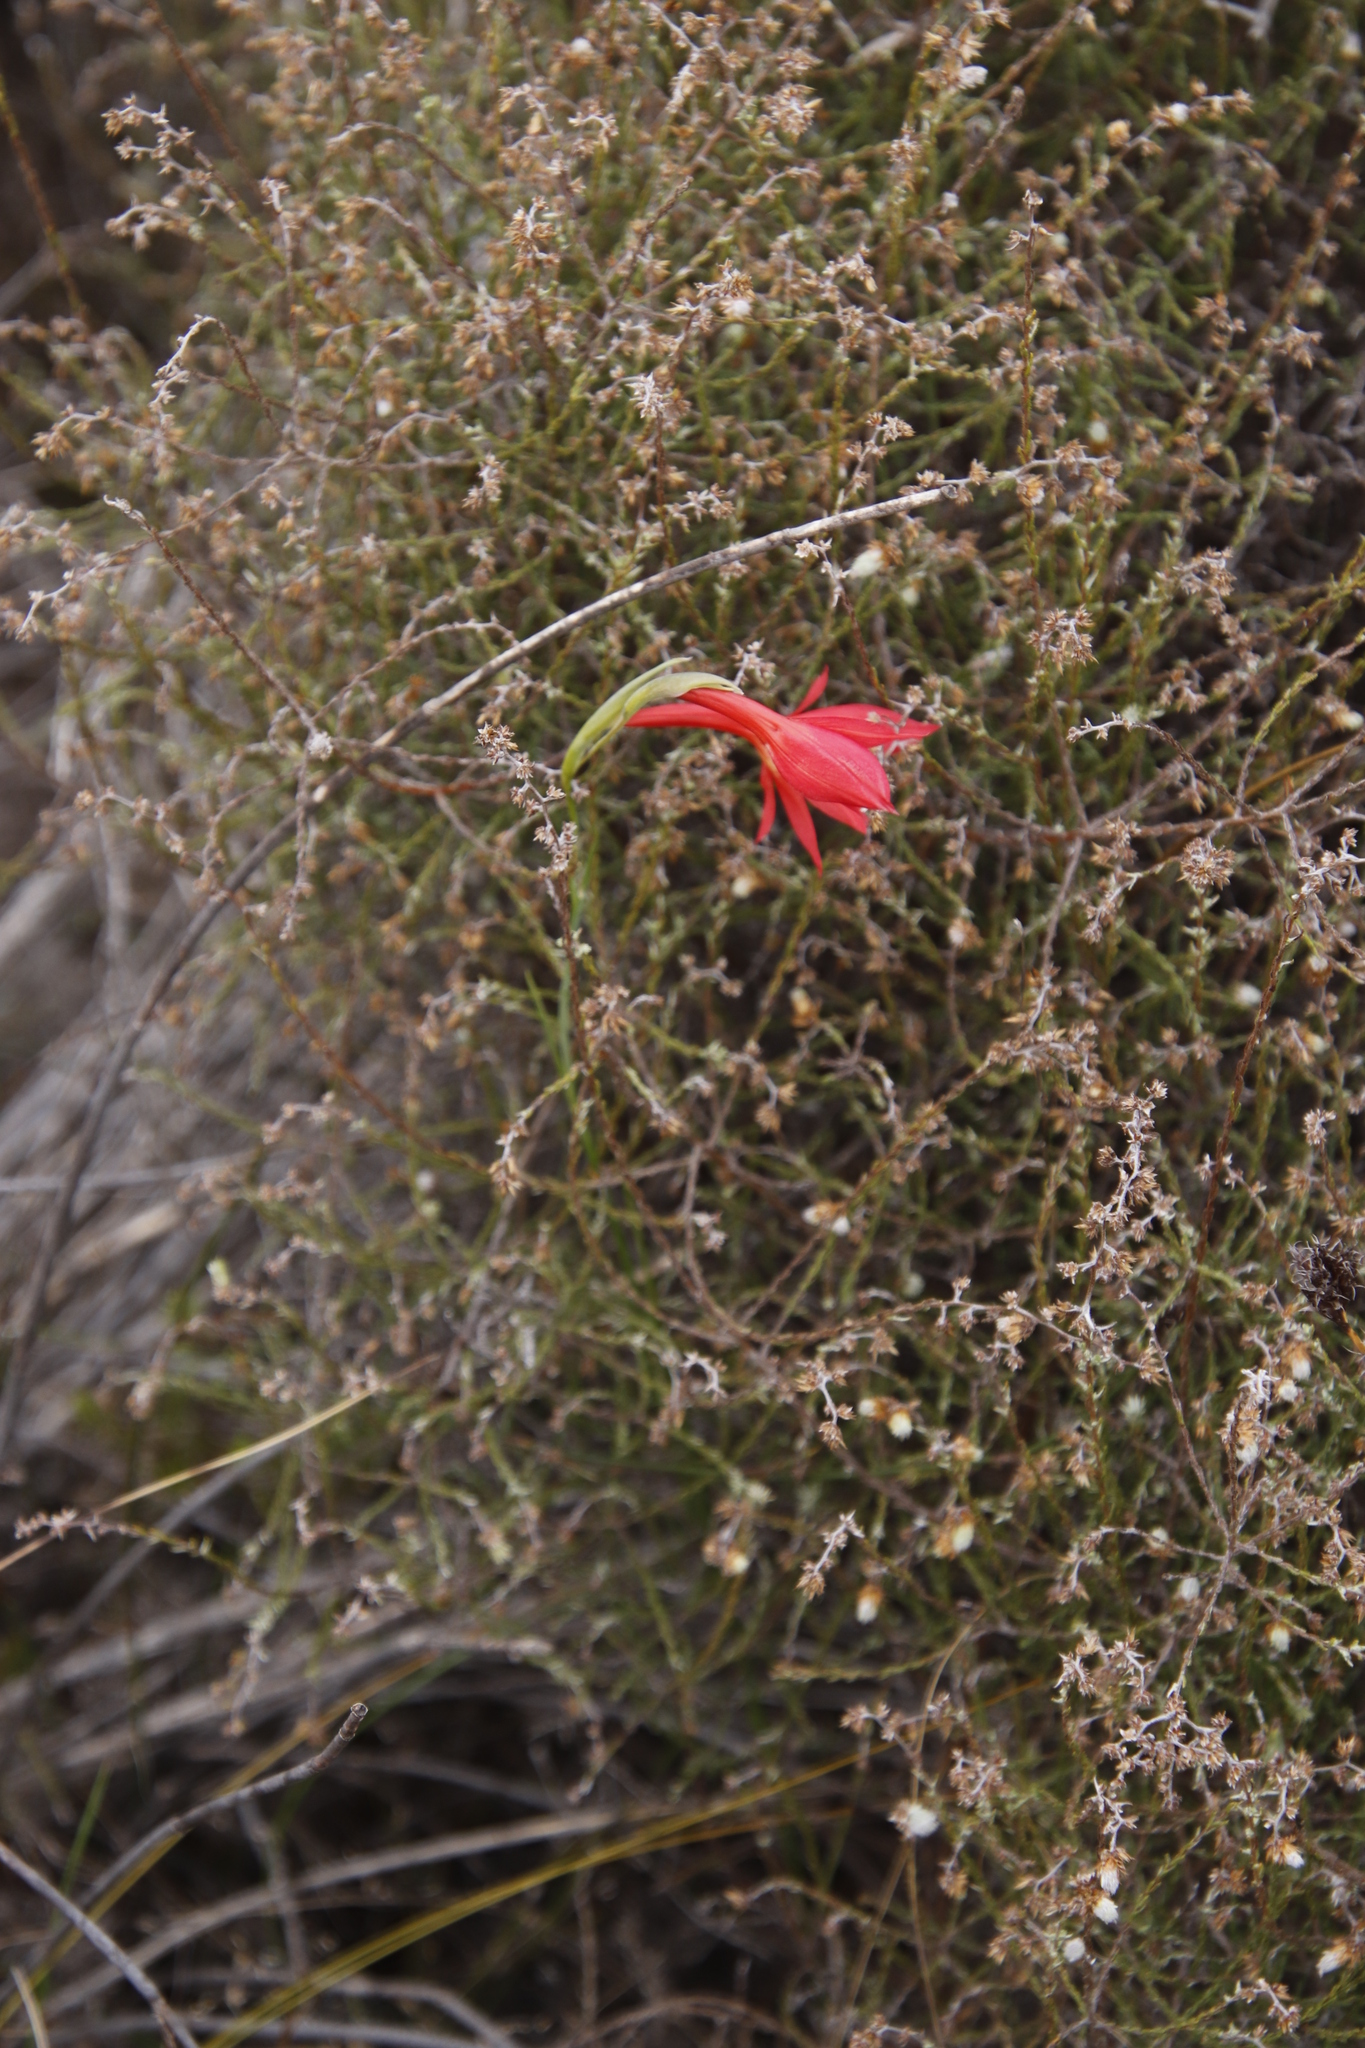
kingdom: Plantae
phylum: Tracheophyta
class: Liliopsida
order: Asparagales
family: Iridaceae
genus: Gladiolus
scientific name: Gladiolus priorii
